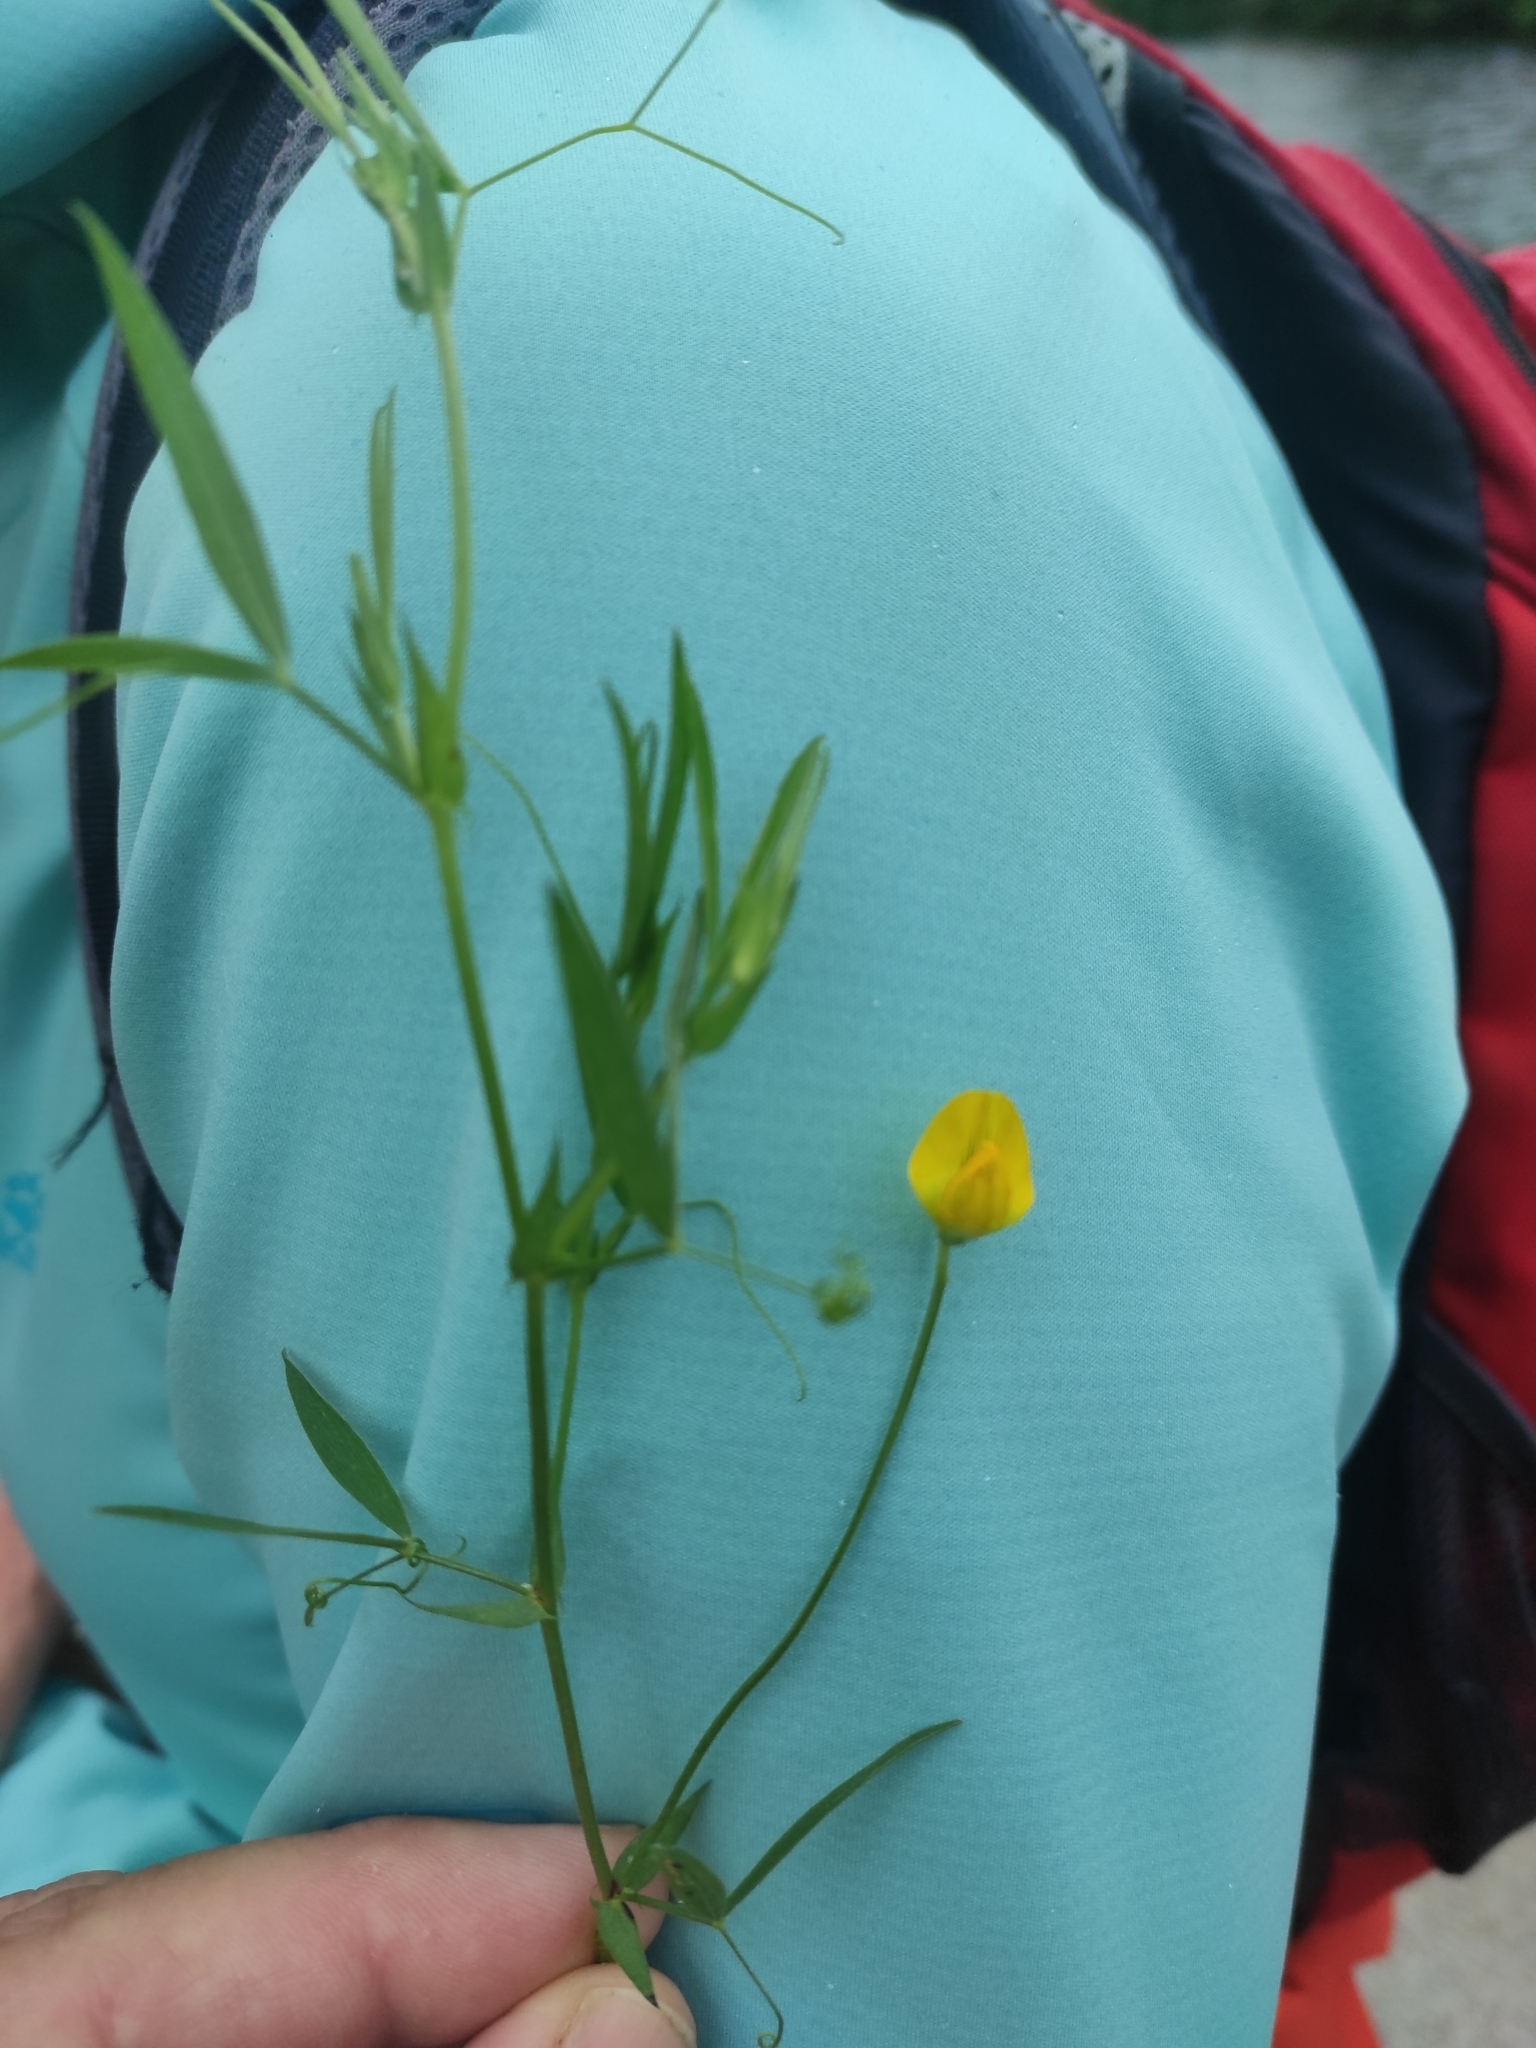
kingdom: Plantae
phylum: Tracheophyta
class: Magnoliopsida
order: Fabales
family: Fabaceae
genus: Lathyrus
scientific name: Lathyrus pratensis
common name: Meadow vetchling
